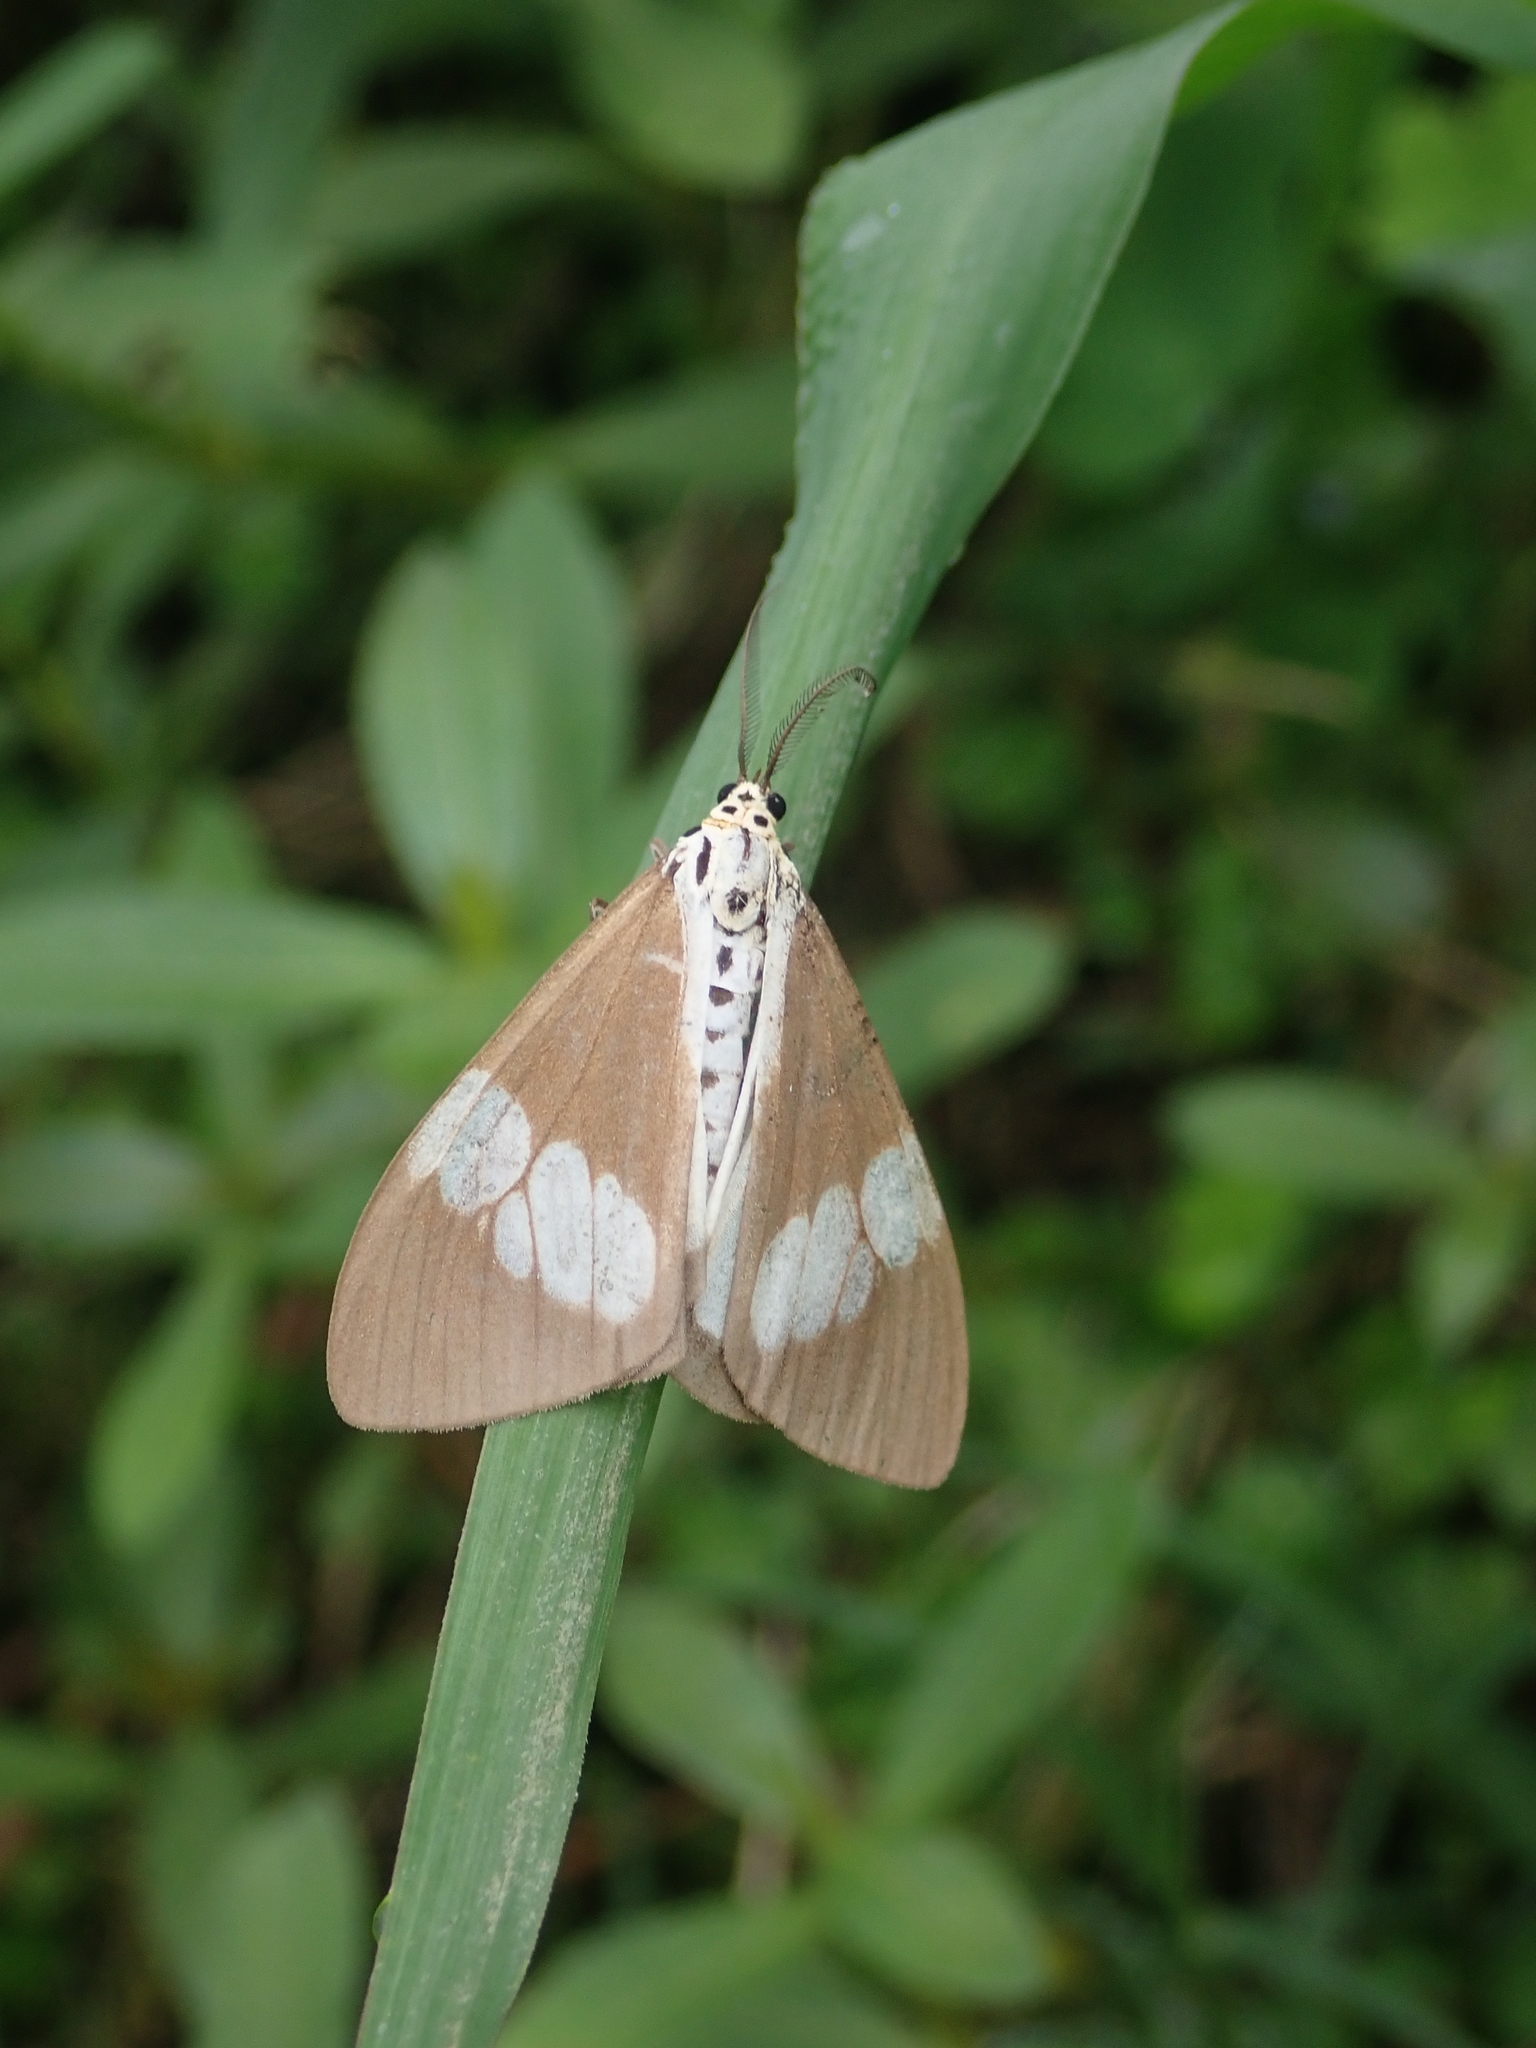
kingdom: Animalia
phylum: Arthropoda
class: Insecta
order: Lepidoptera
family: Erebidae
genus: Nyctemera
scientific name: Nyctemera lacticinia
